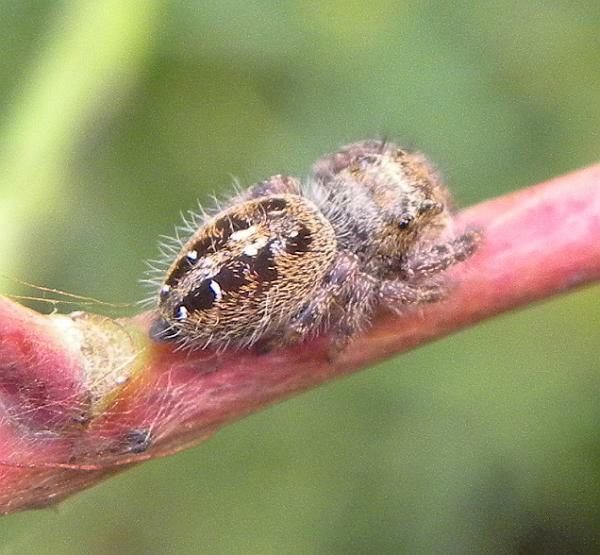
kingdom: Animalia
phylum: Arthropoda
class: Arachnida
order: Araneae
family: Salticidae
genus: Phidippus
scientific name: Phidippus princeps
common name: Grayish jumping spider
